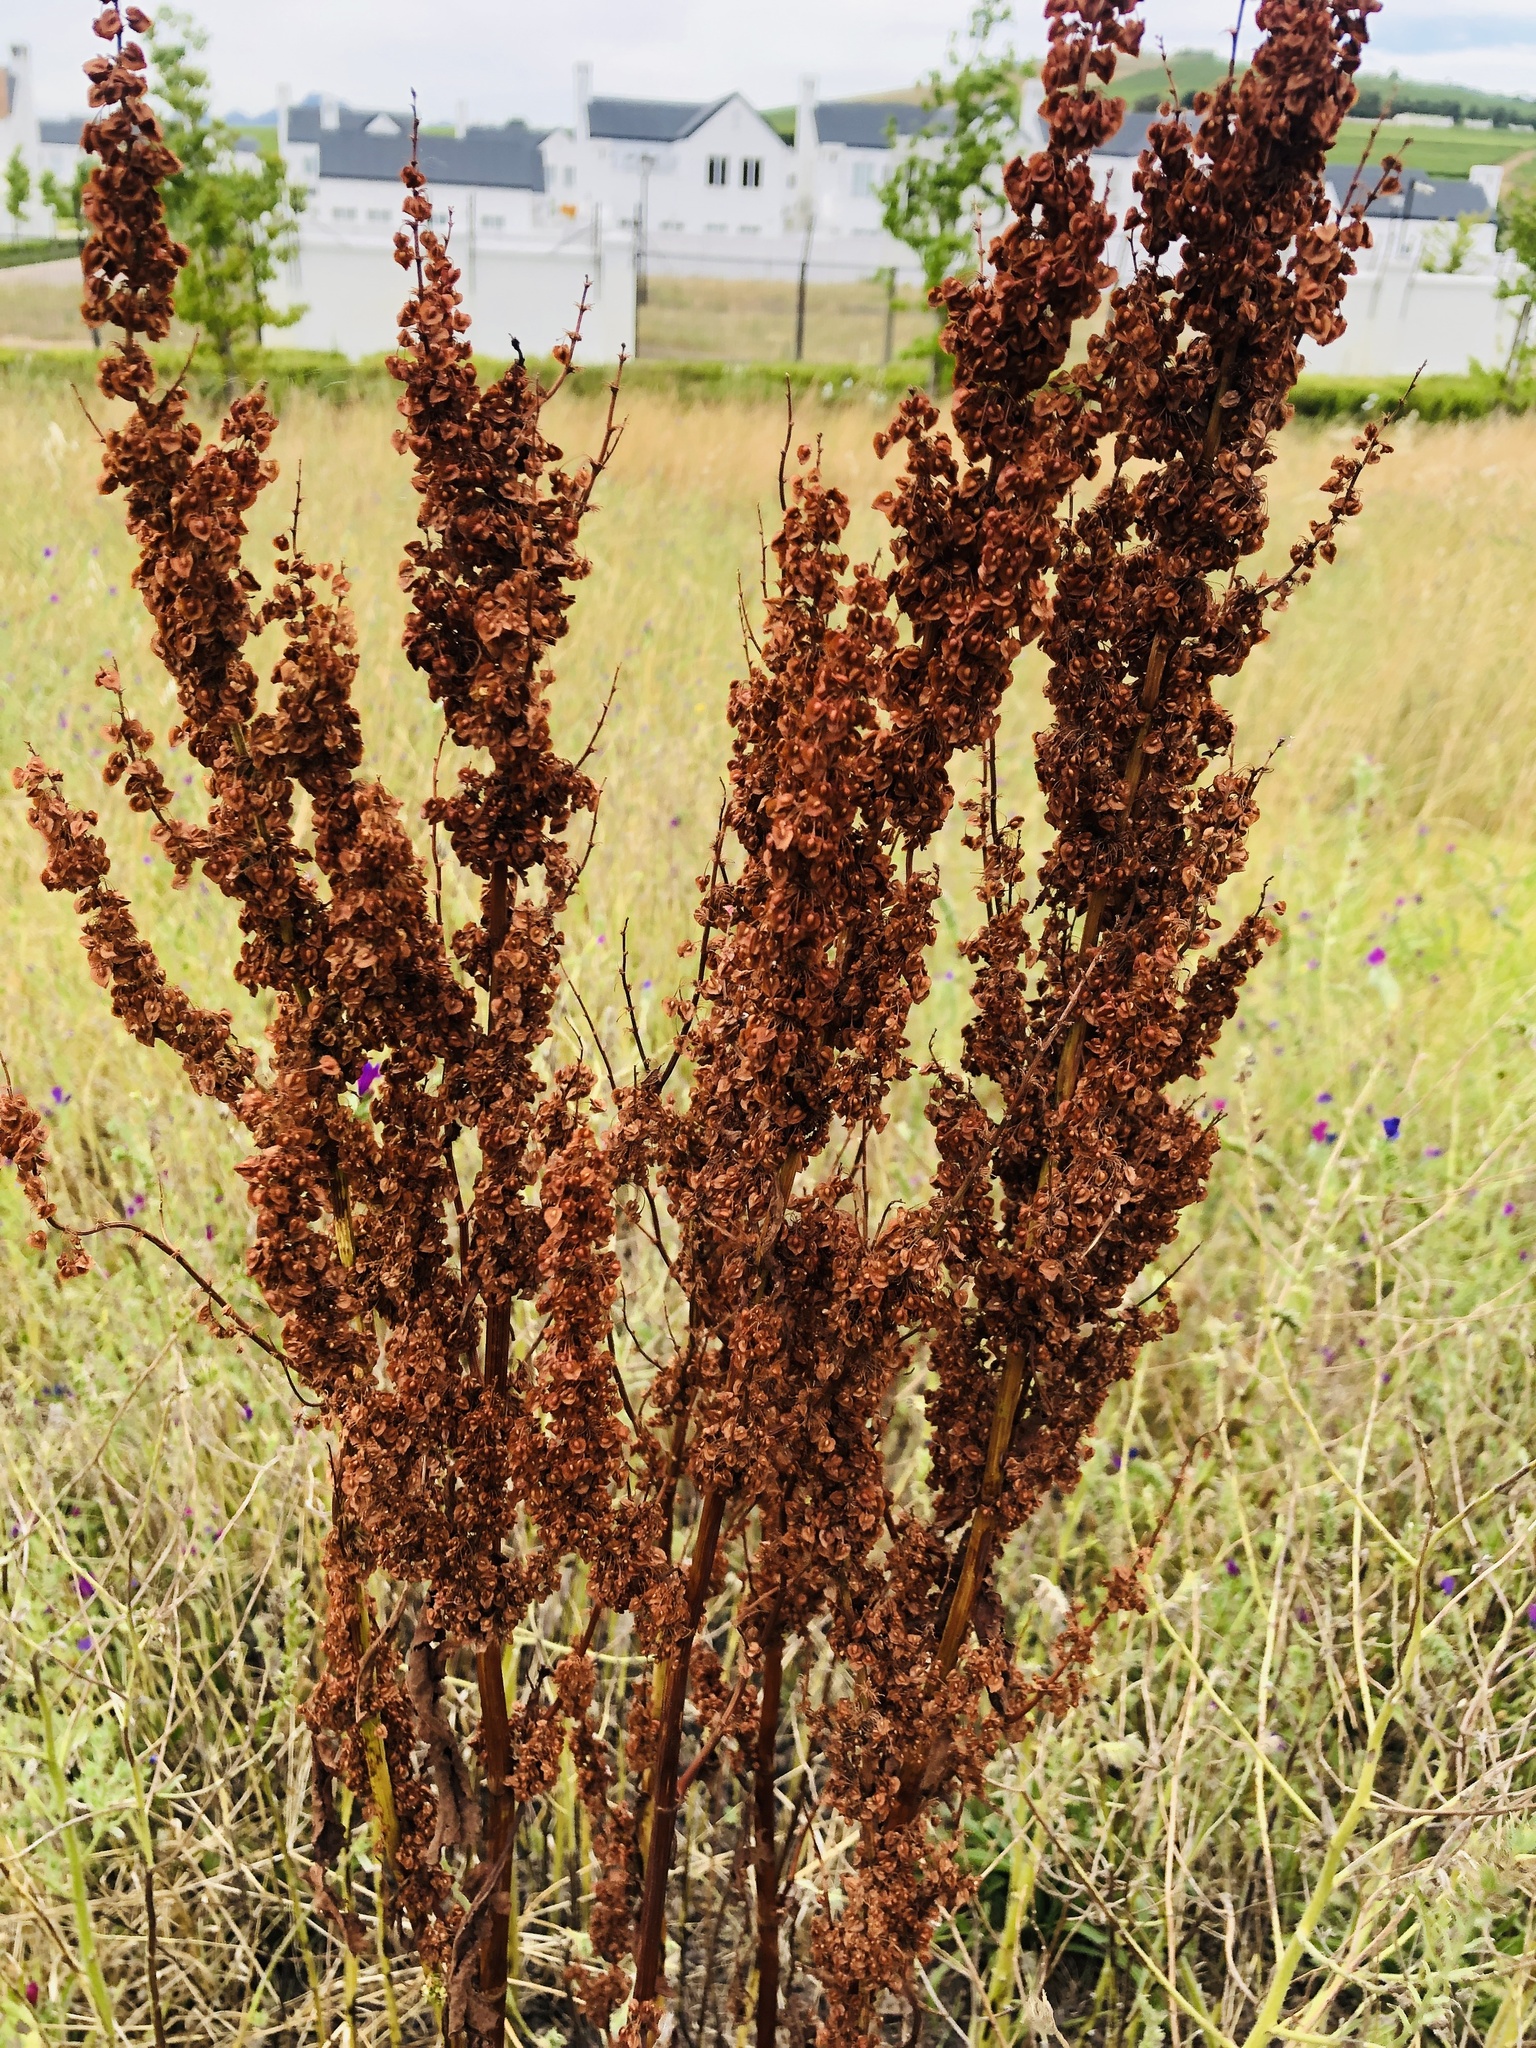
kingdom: Plantae
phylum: Tracheophyta
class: Magnoliopsida
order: Caryophyllales
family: Polygonaceae
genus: Rumex
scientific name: Rumex crispus
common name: Curled dock
